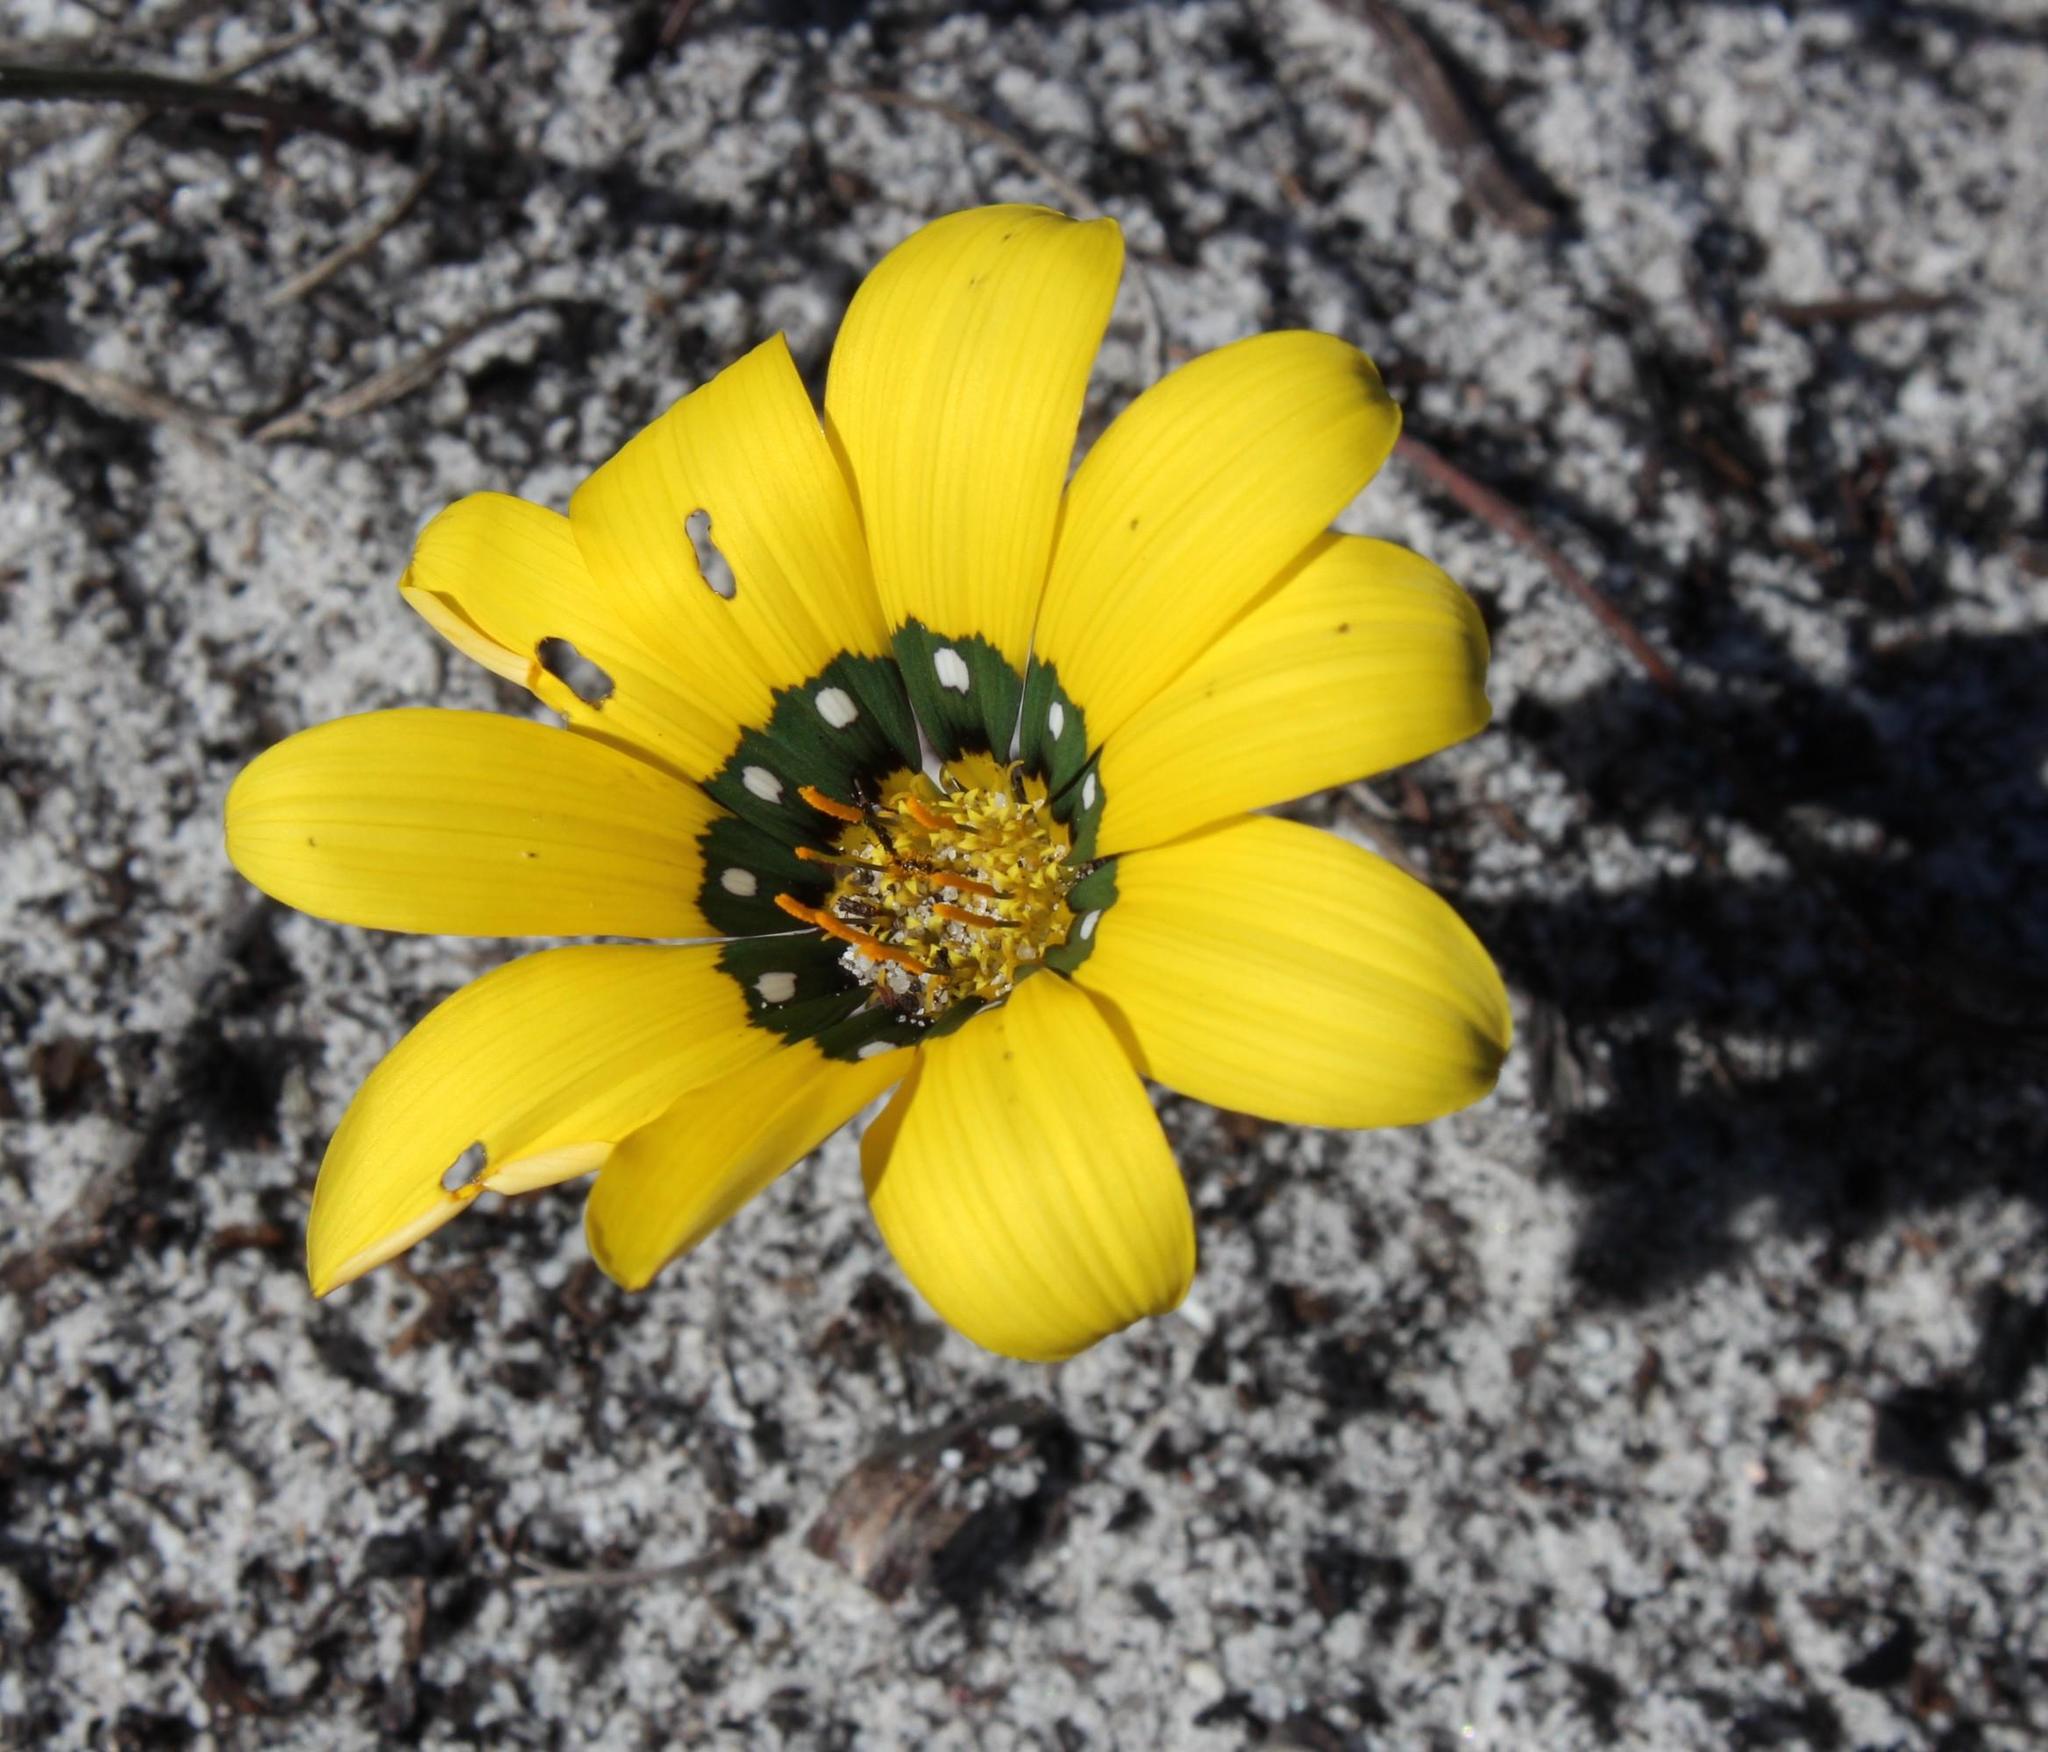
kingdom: Plantae
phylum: Tracheophyta
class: Magnoliopsida
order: Asterales
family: Asteraceae
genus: Gazania
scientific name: Gazania pectinata
